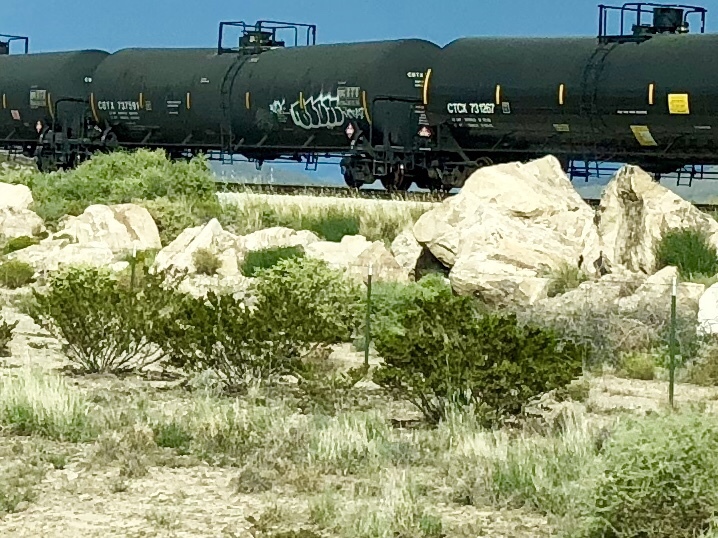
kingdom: Plantae
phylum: Tracheophyta
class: Magnoliopsida
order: Zygophyllales
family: Zygophyllaceae
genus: Larrea
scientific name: Larrea tridentata
